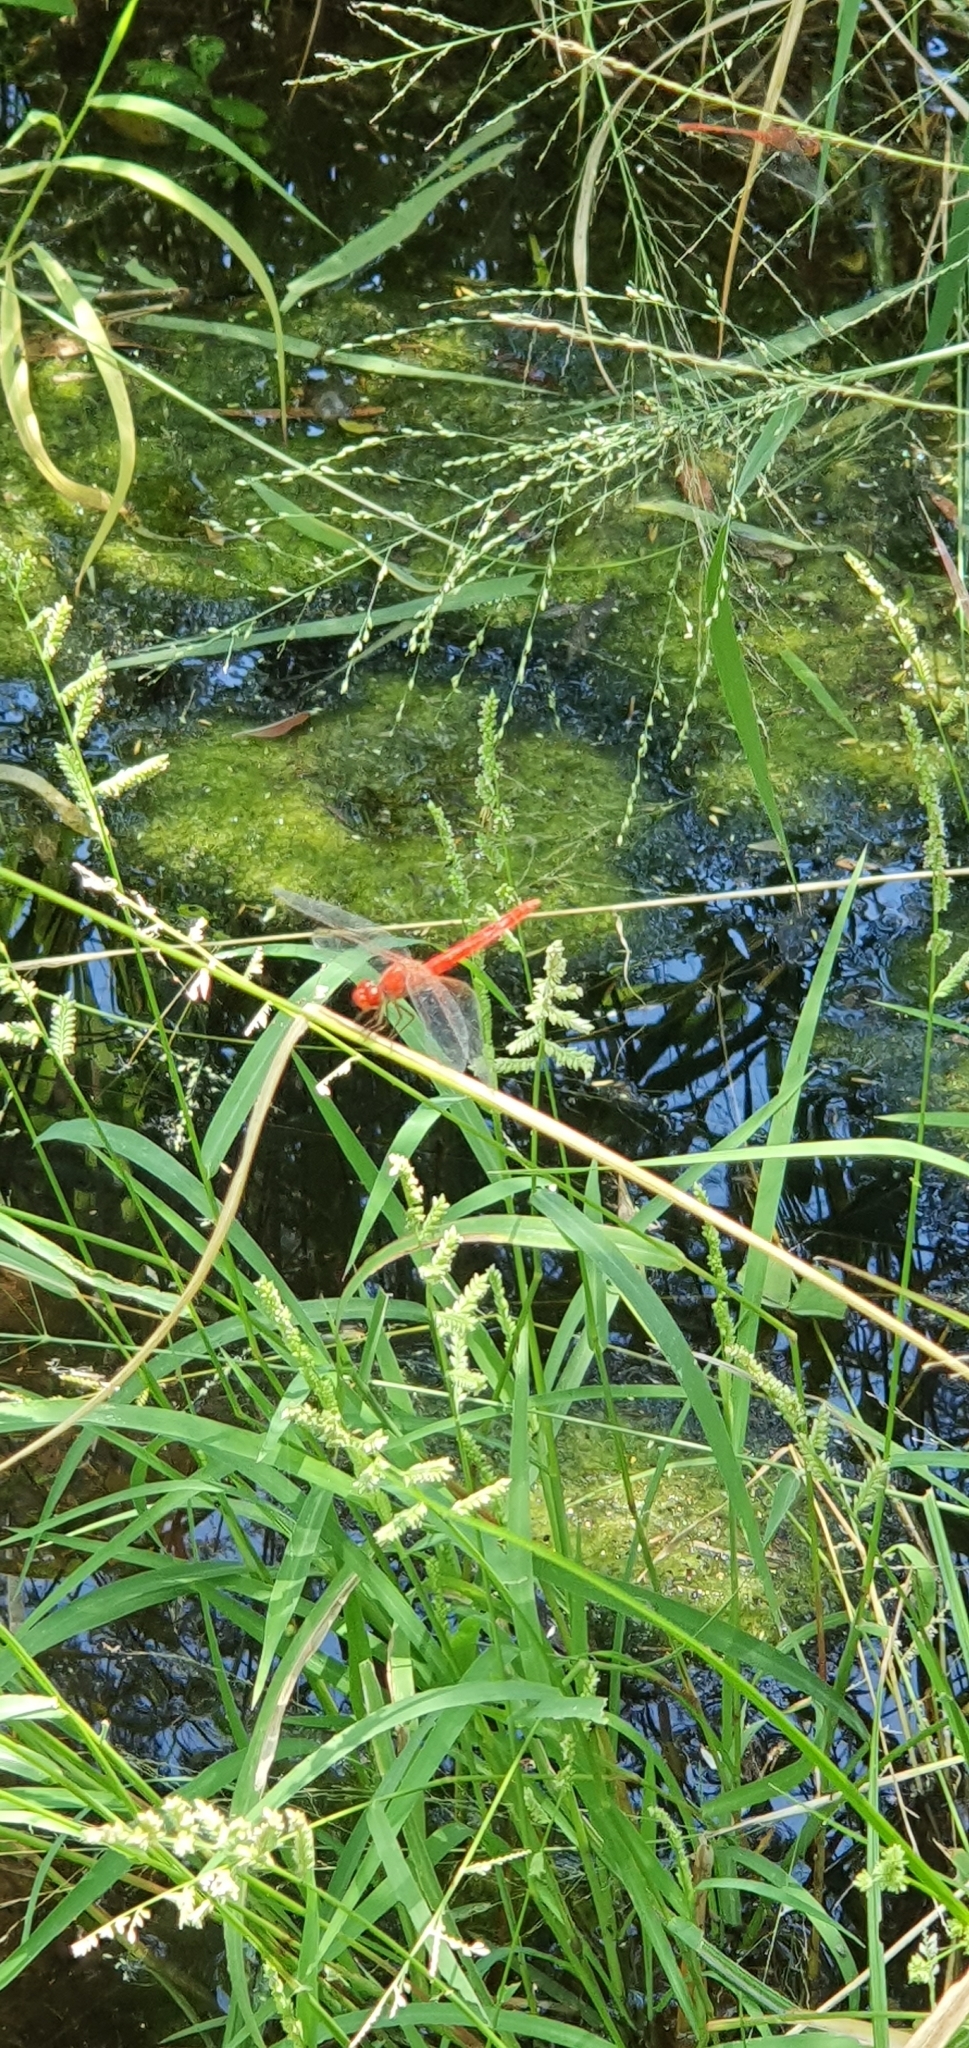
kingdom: Animalia
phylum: Arthropoda
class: Insecta
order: Odonata
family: Libellulidae
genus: Diplacodes
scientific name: Diplacodes haematodes
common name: Scarlet percher
